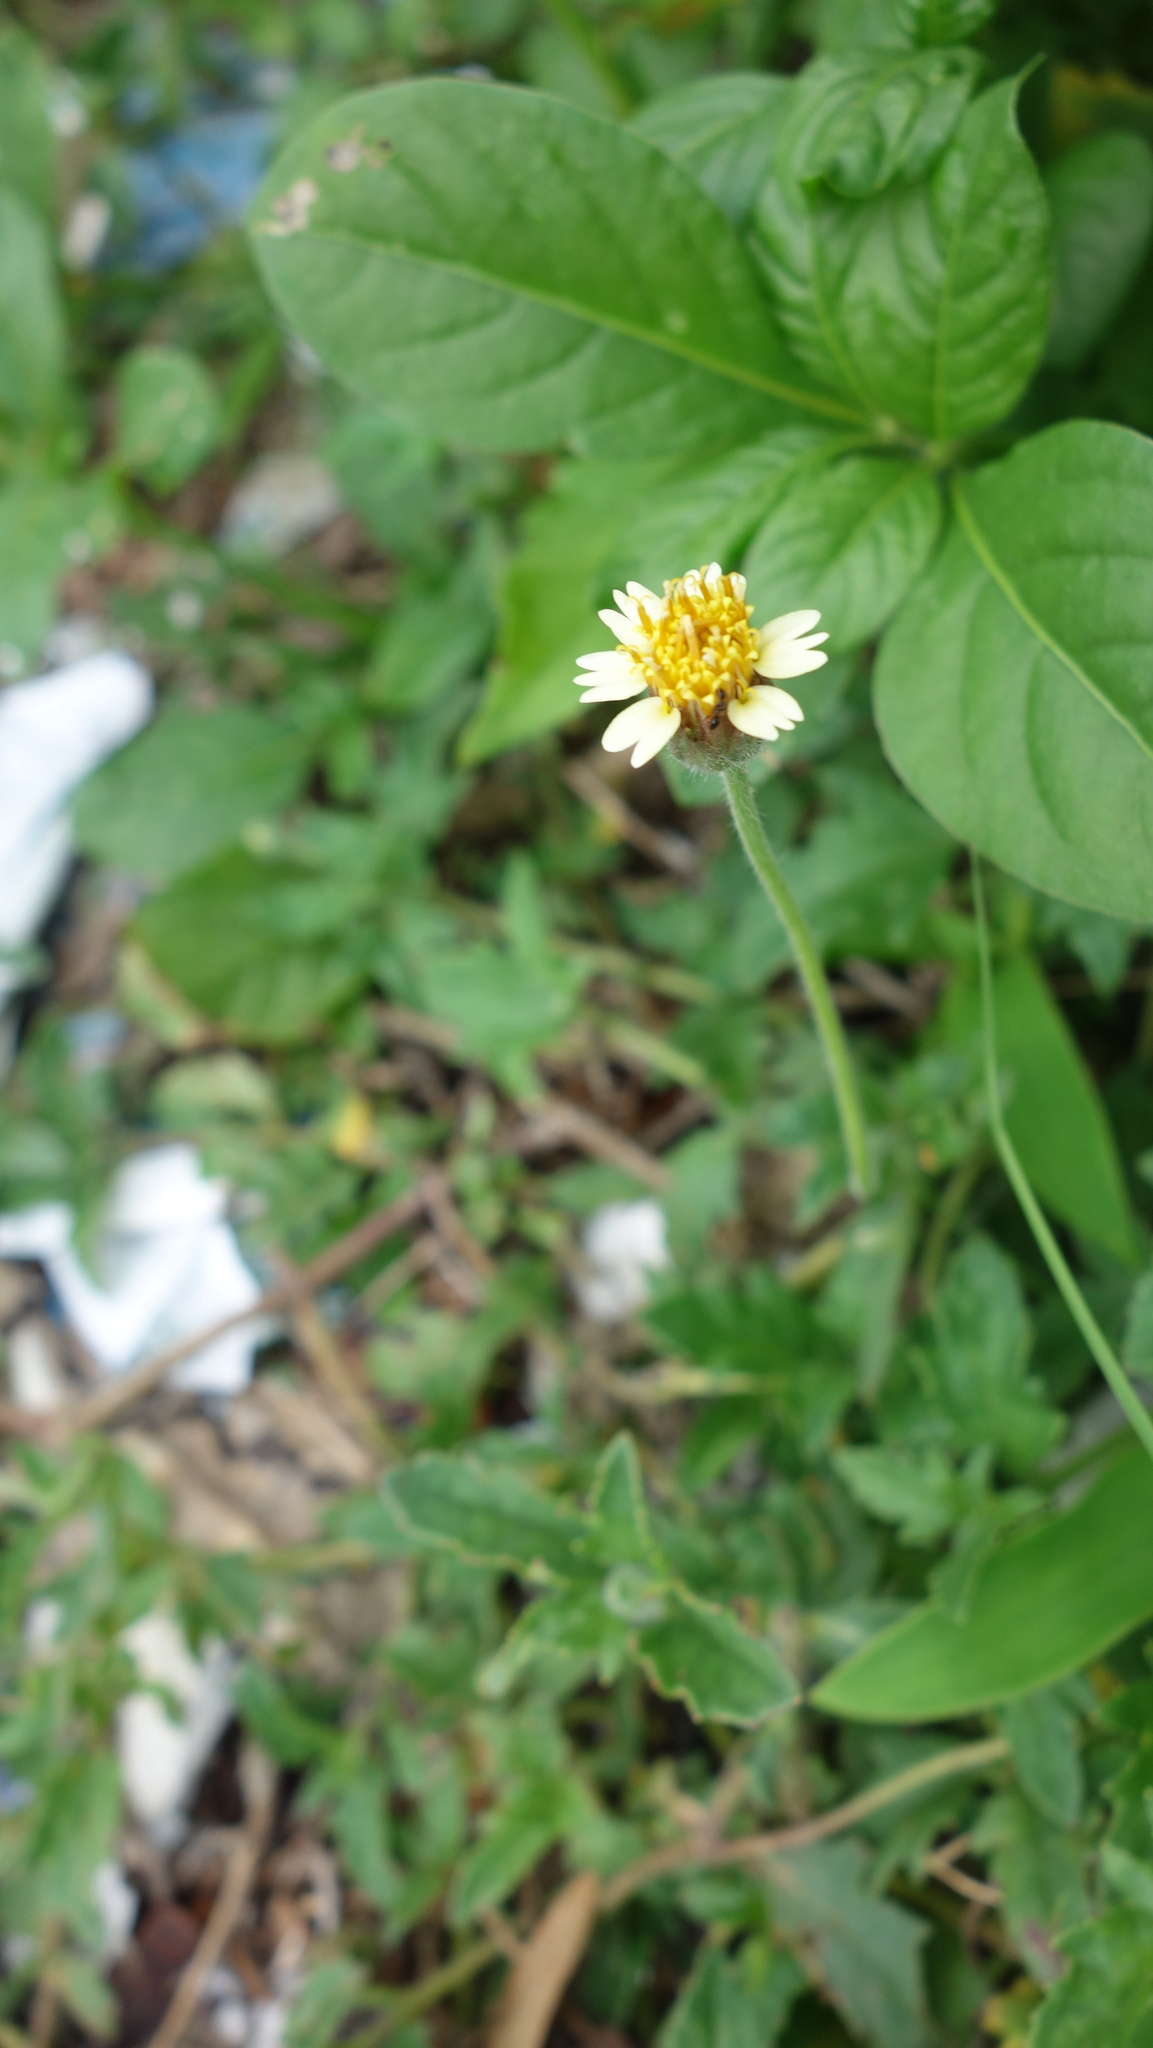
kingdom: Plantae
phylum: Tracheophyta
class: Magnoliopsida
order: Asterales
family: Asteraceae
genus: Tridax
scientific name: Tridax procumbens
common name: Coatbuttons
